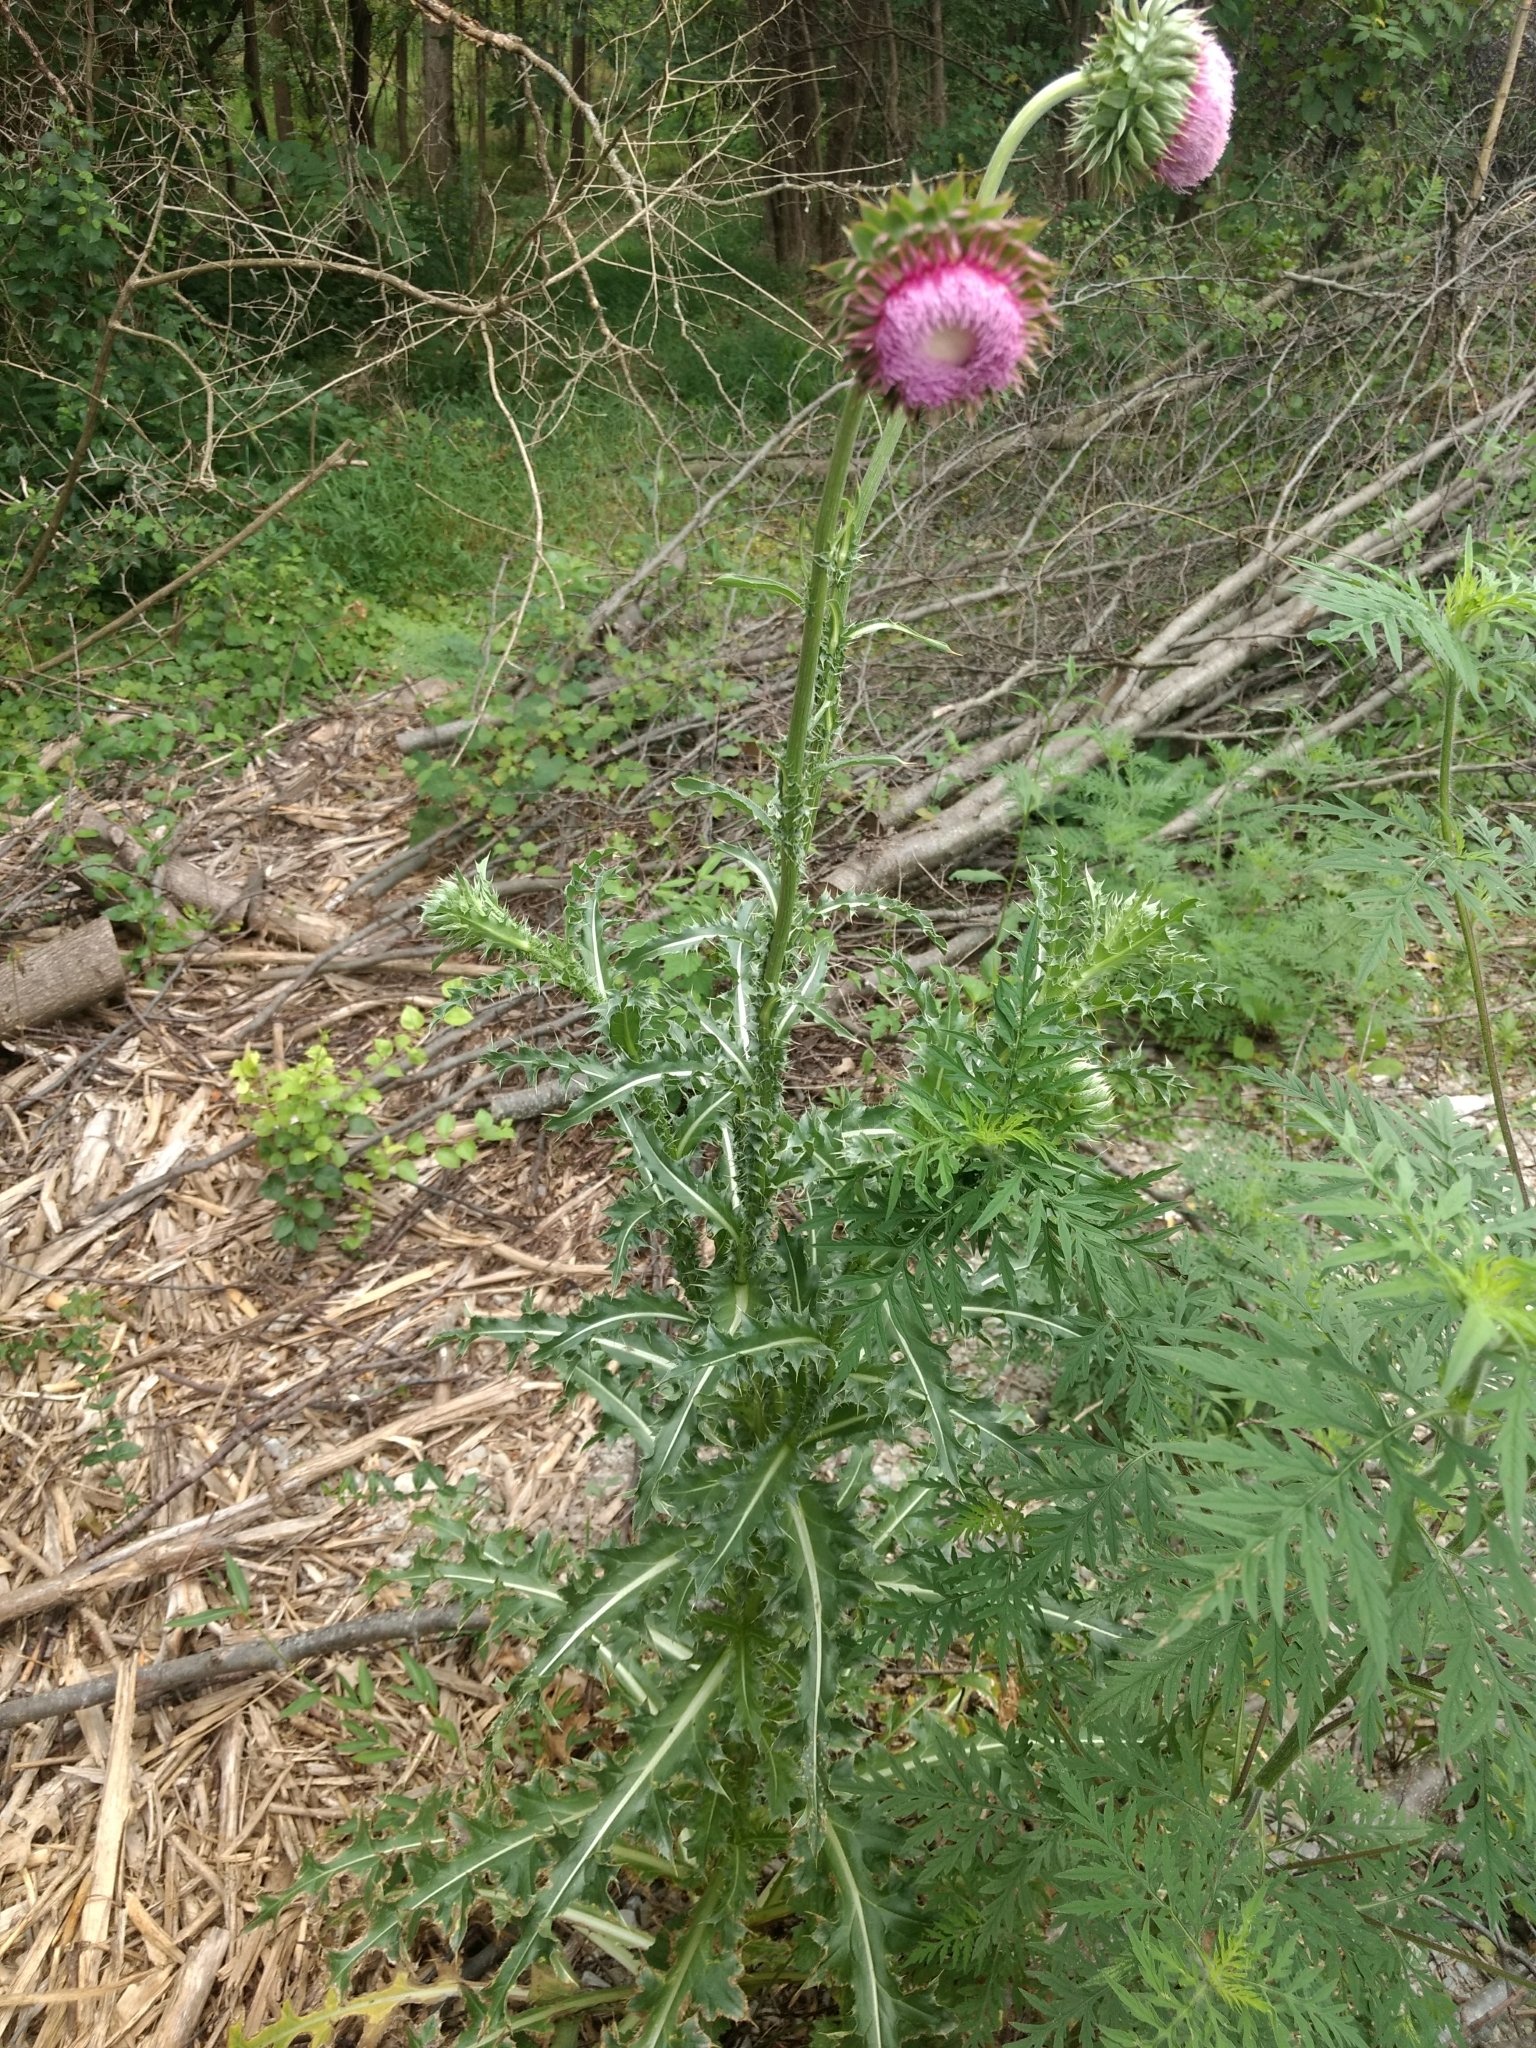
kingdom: Plantae
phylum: Tracheophyta
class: Magnoliopsida
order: Asterales
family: Asteraceae
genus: Carduus
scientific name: Carduus nutans
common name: Musk thistle
